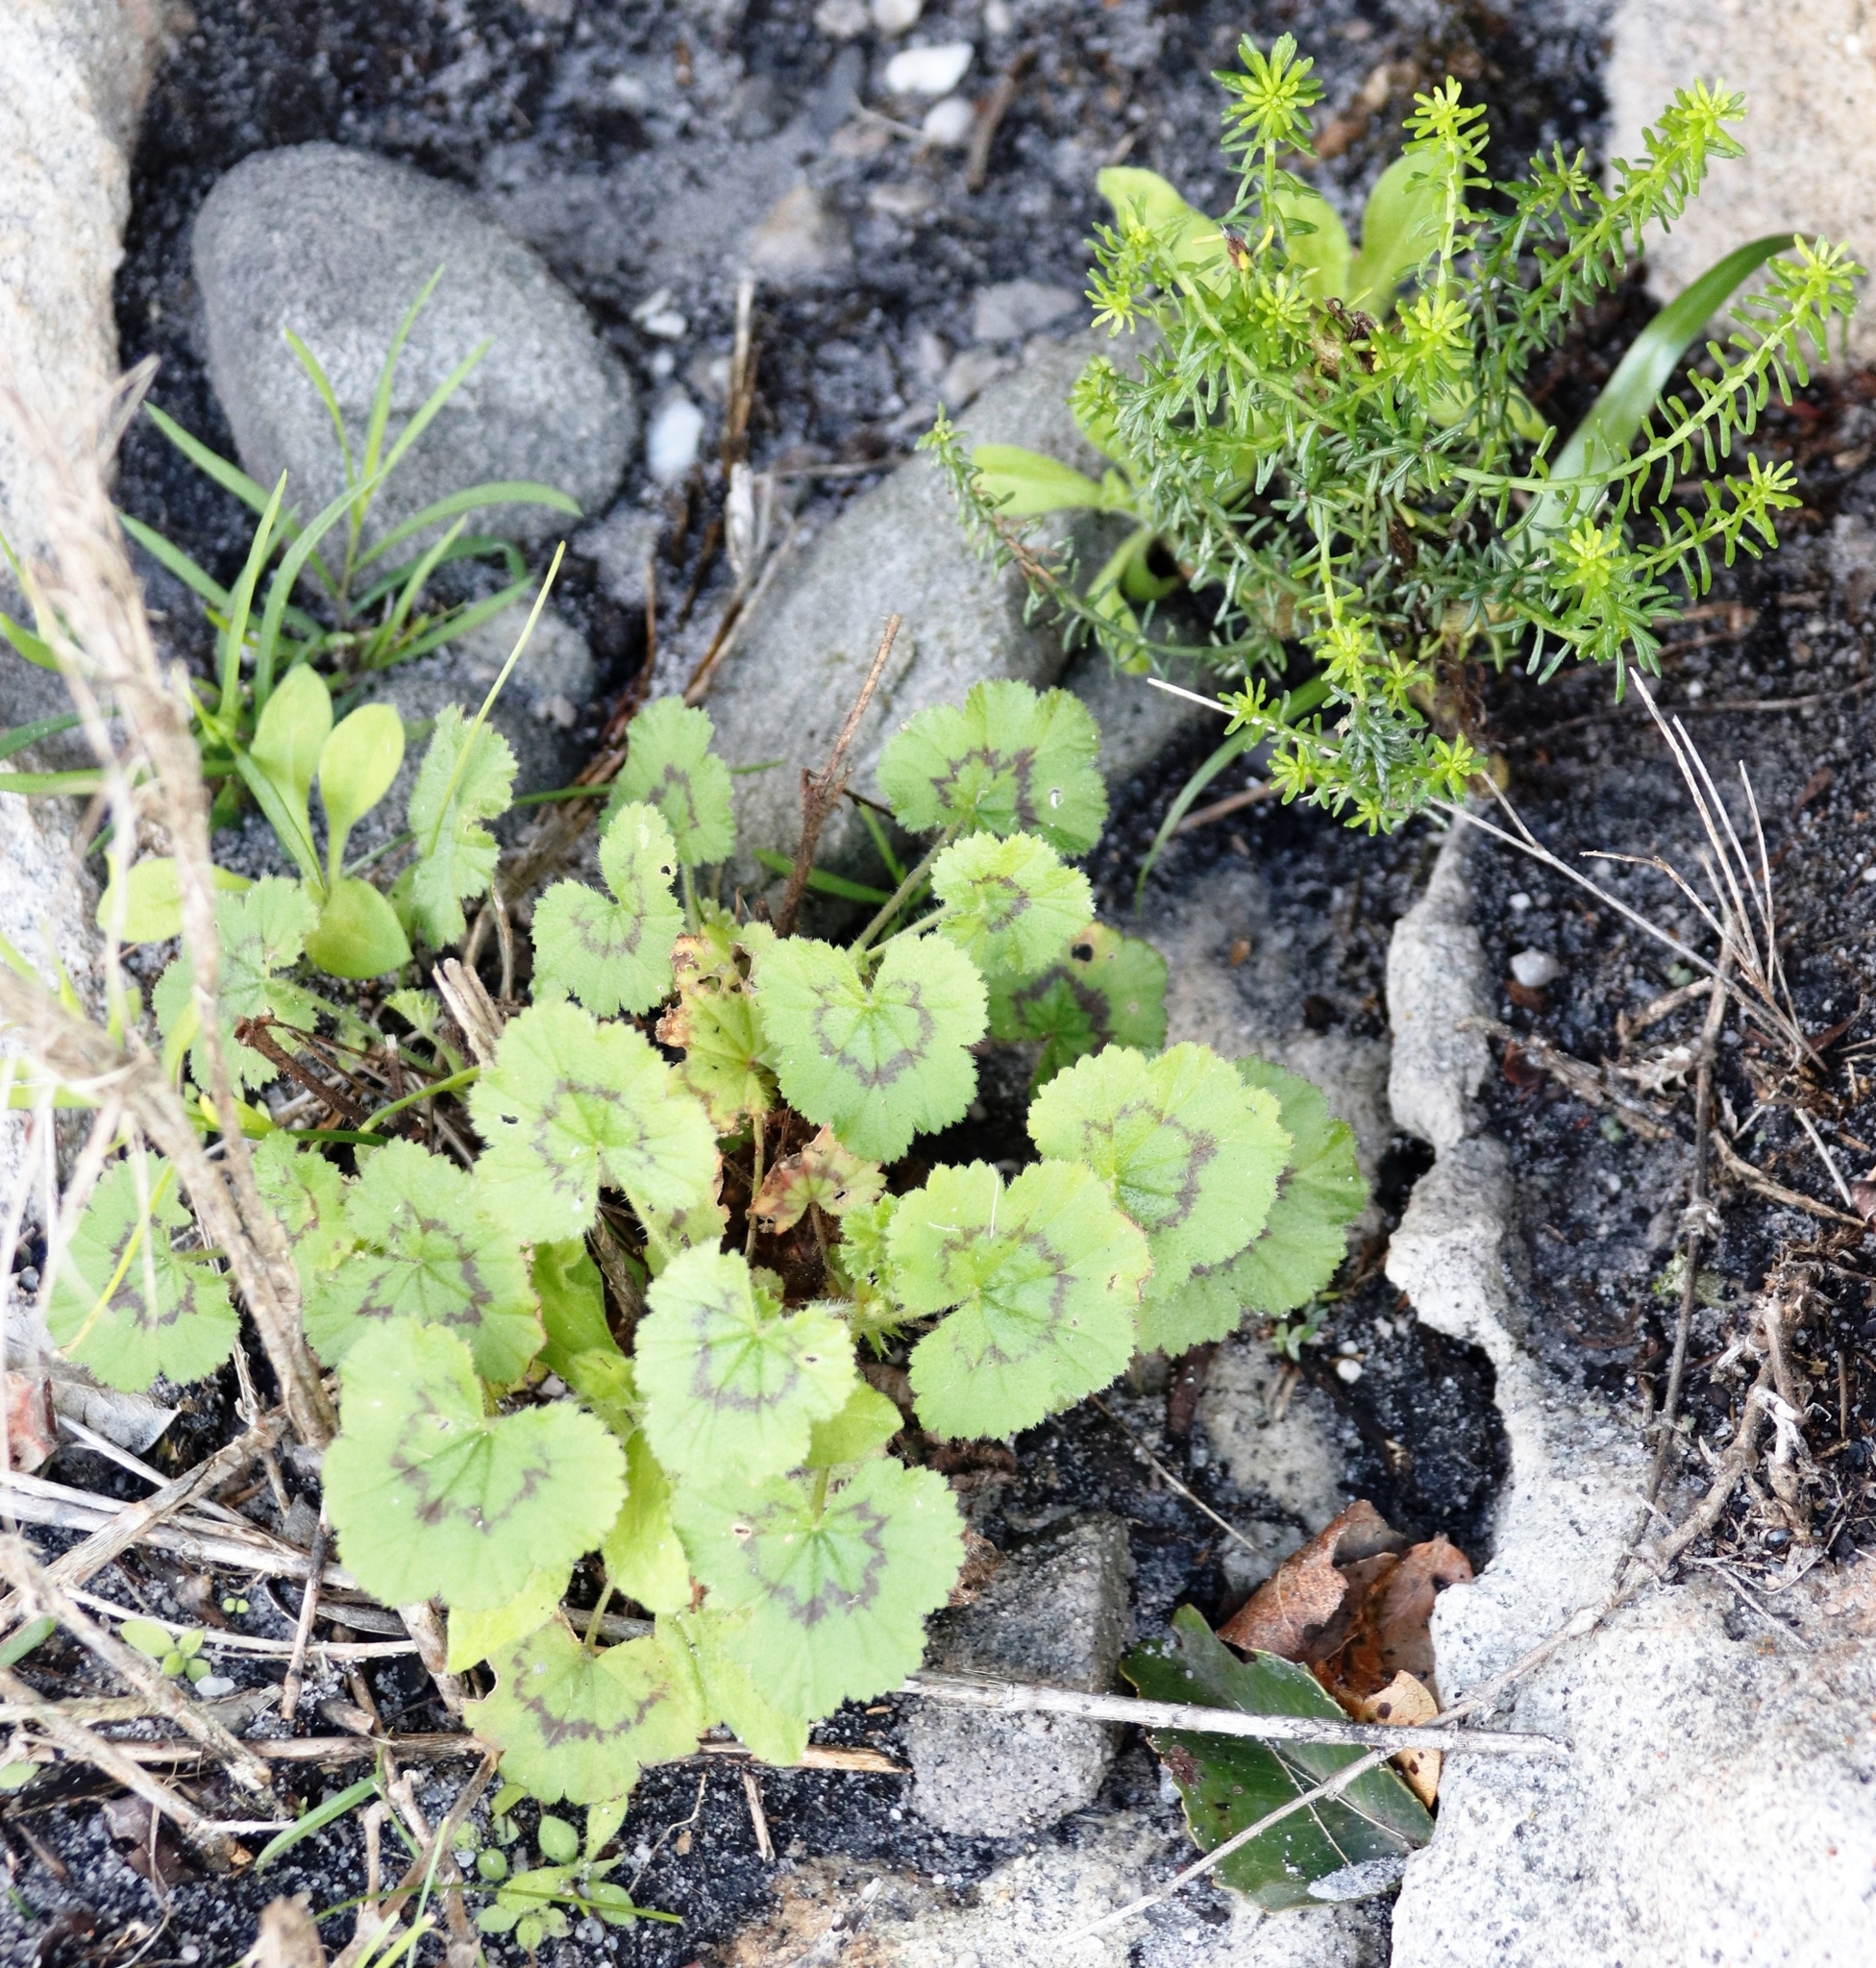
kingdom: Plantae
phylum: Tracheophyta
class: Magnoliopsida
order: Geraniales
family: Geraniaceae
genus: Pelargonium
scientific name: Pelargonium elongatum
